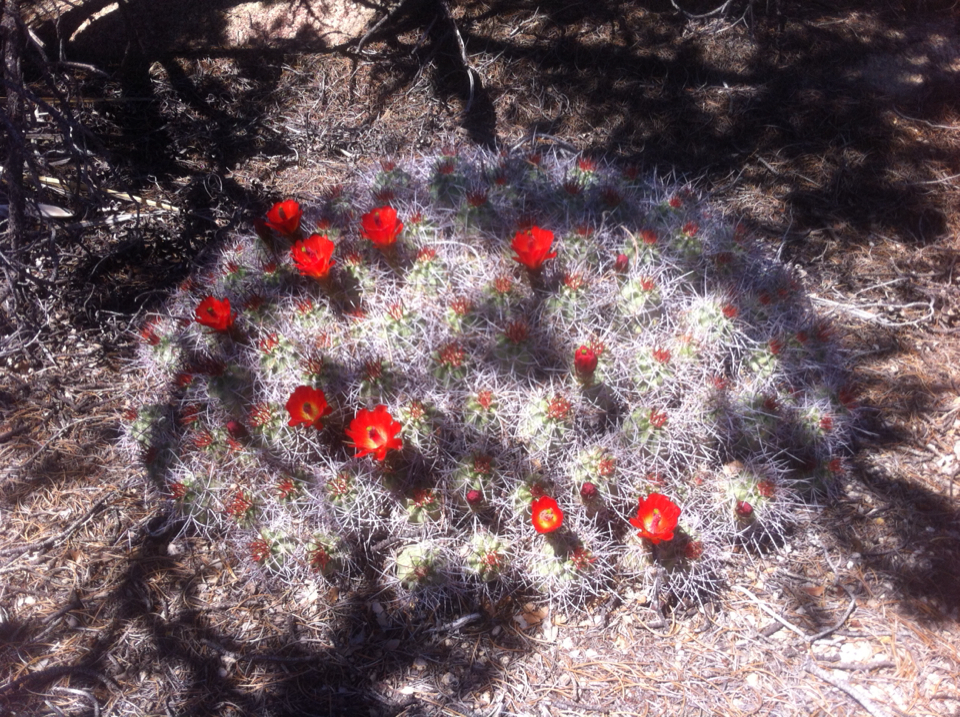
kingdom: Plantae
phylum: Tracheophyta
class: Magnoliopsida
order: Caryophyllales
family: Cactaceae
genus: Echinocereus
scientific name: Echinocereus triglochidiatus
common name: Claretcup hedgehog
